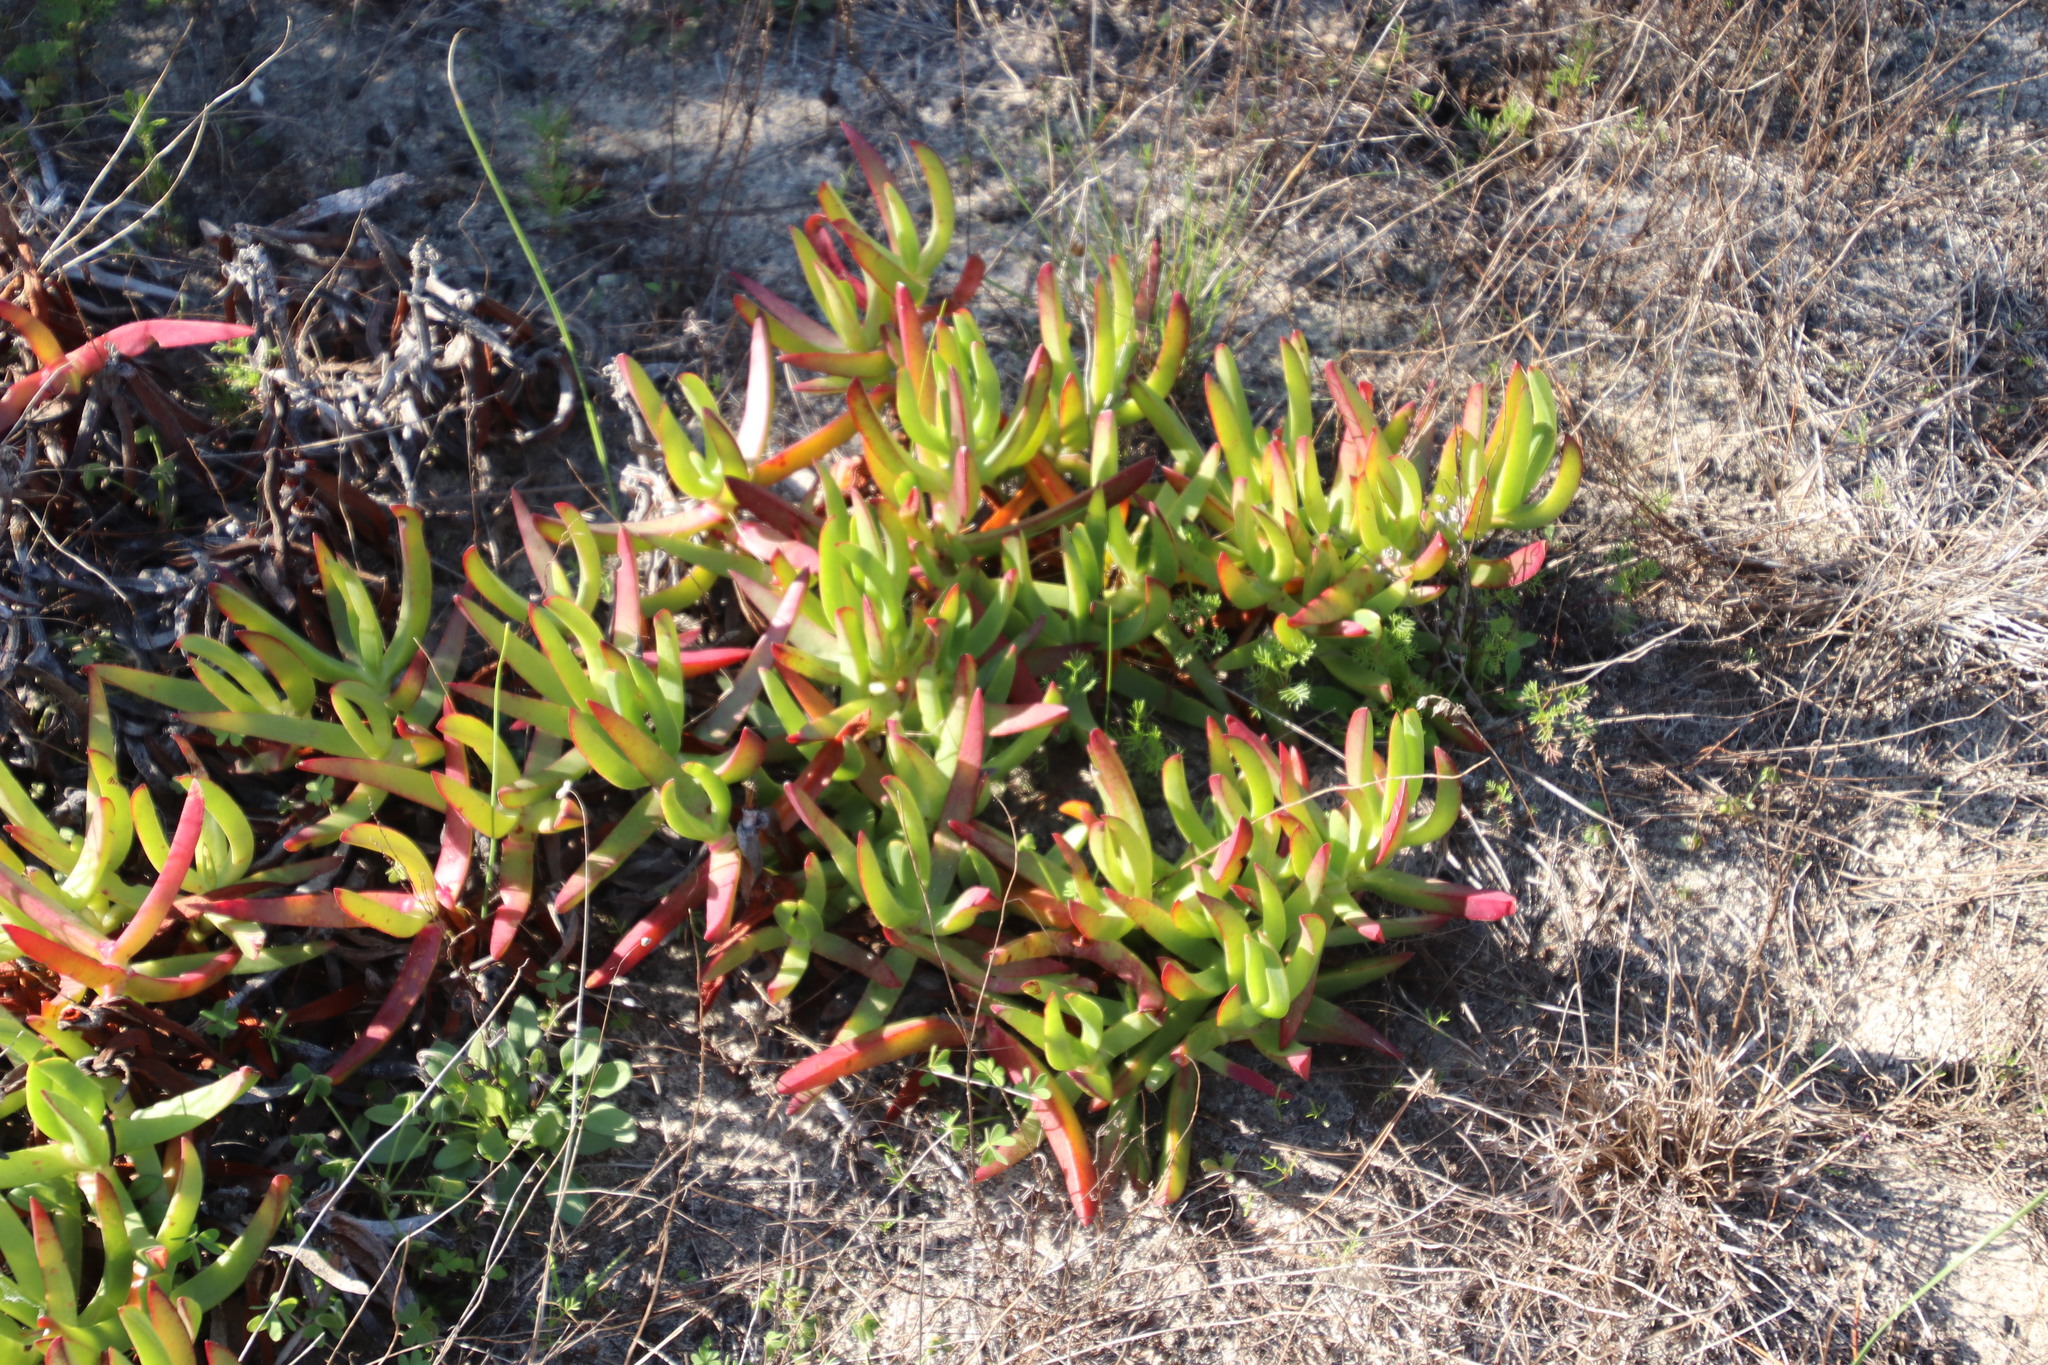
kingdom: Plantae
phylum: Tracheophyta
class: Magnoliopsida
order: Caryophyllales
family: Aizoaceae
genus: Carpobrotus
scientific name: Carpobrotus edulis
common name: Hottentot-fig
